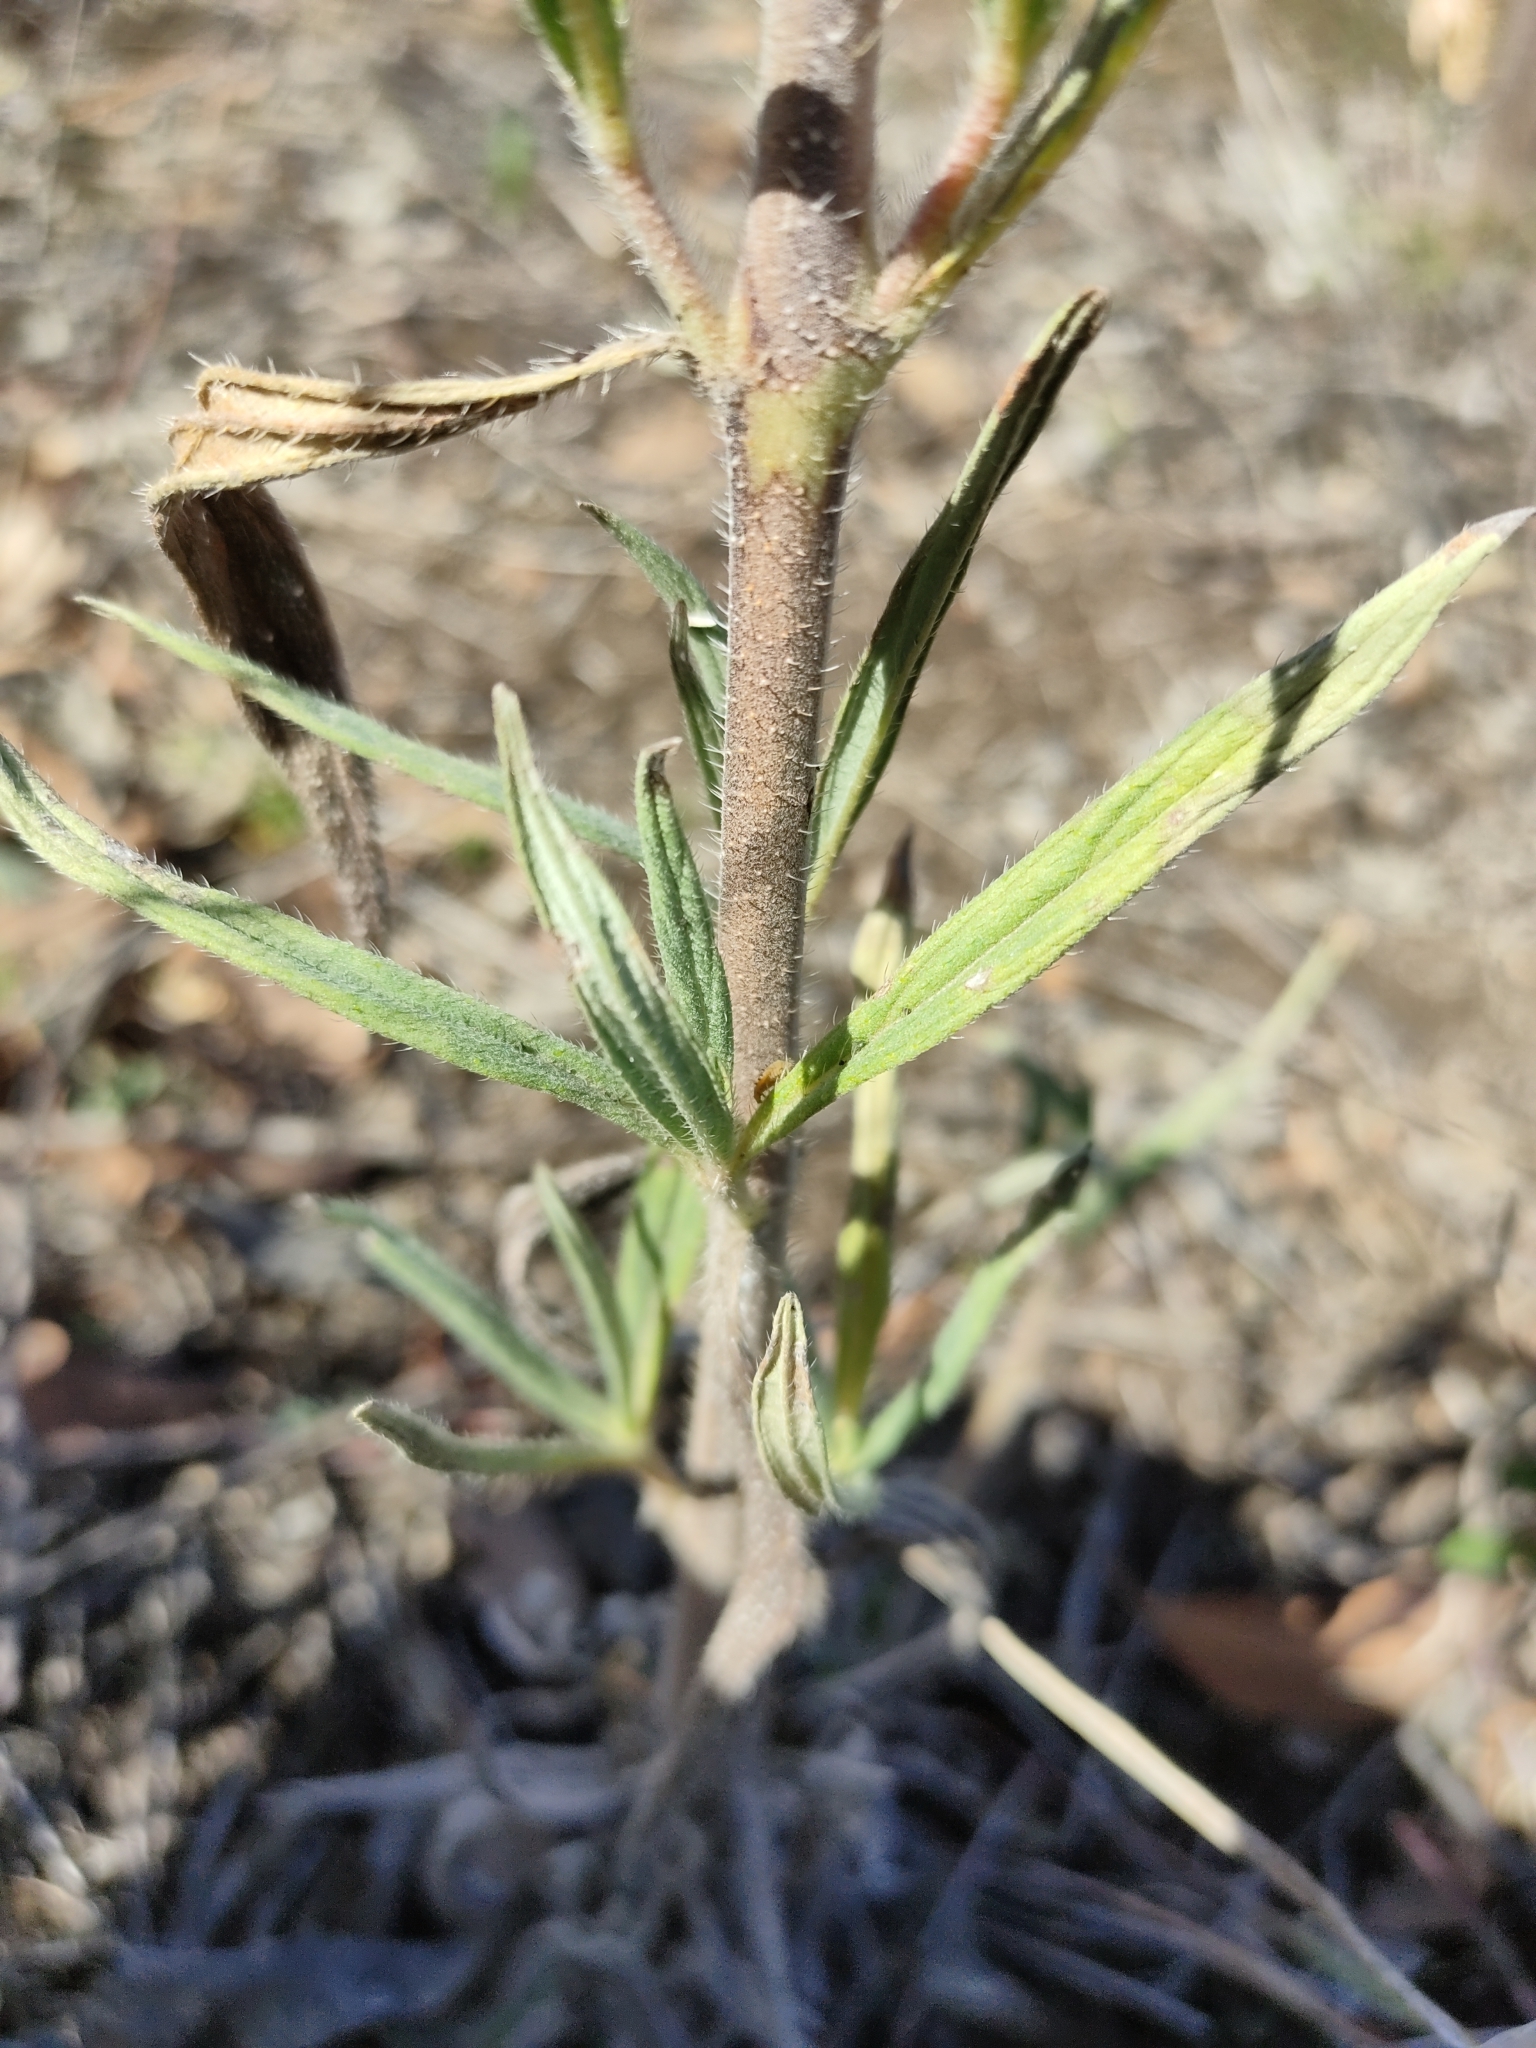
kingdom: Plantae
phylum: Tracheophyta
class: Magnoliopsida
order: Boraginales
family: Boraginaceae
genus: Trichodesma
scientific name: Trichodesma zeylanicum
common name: Camelbush
